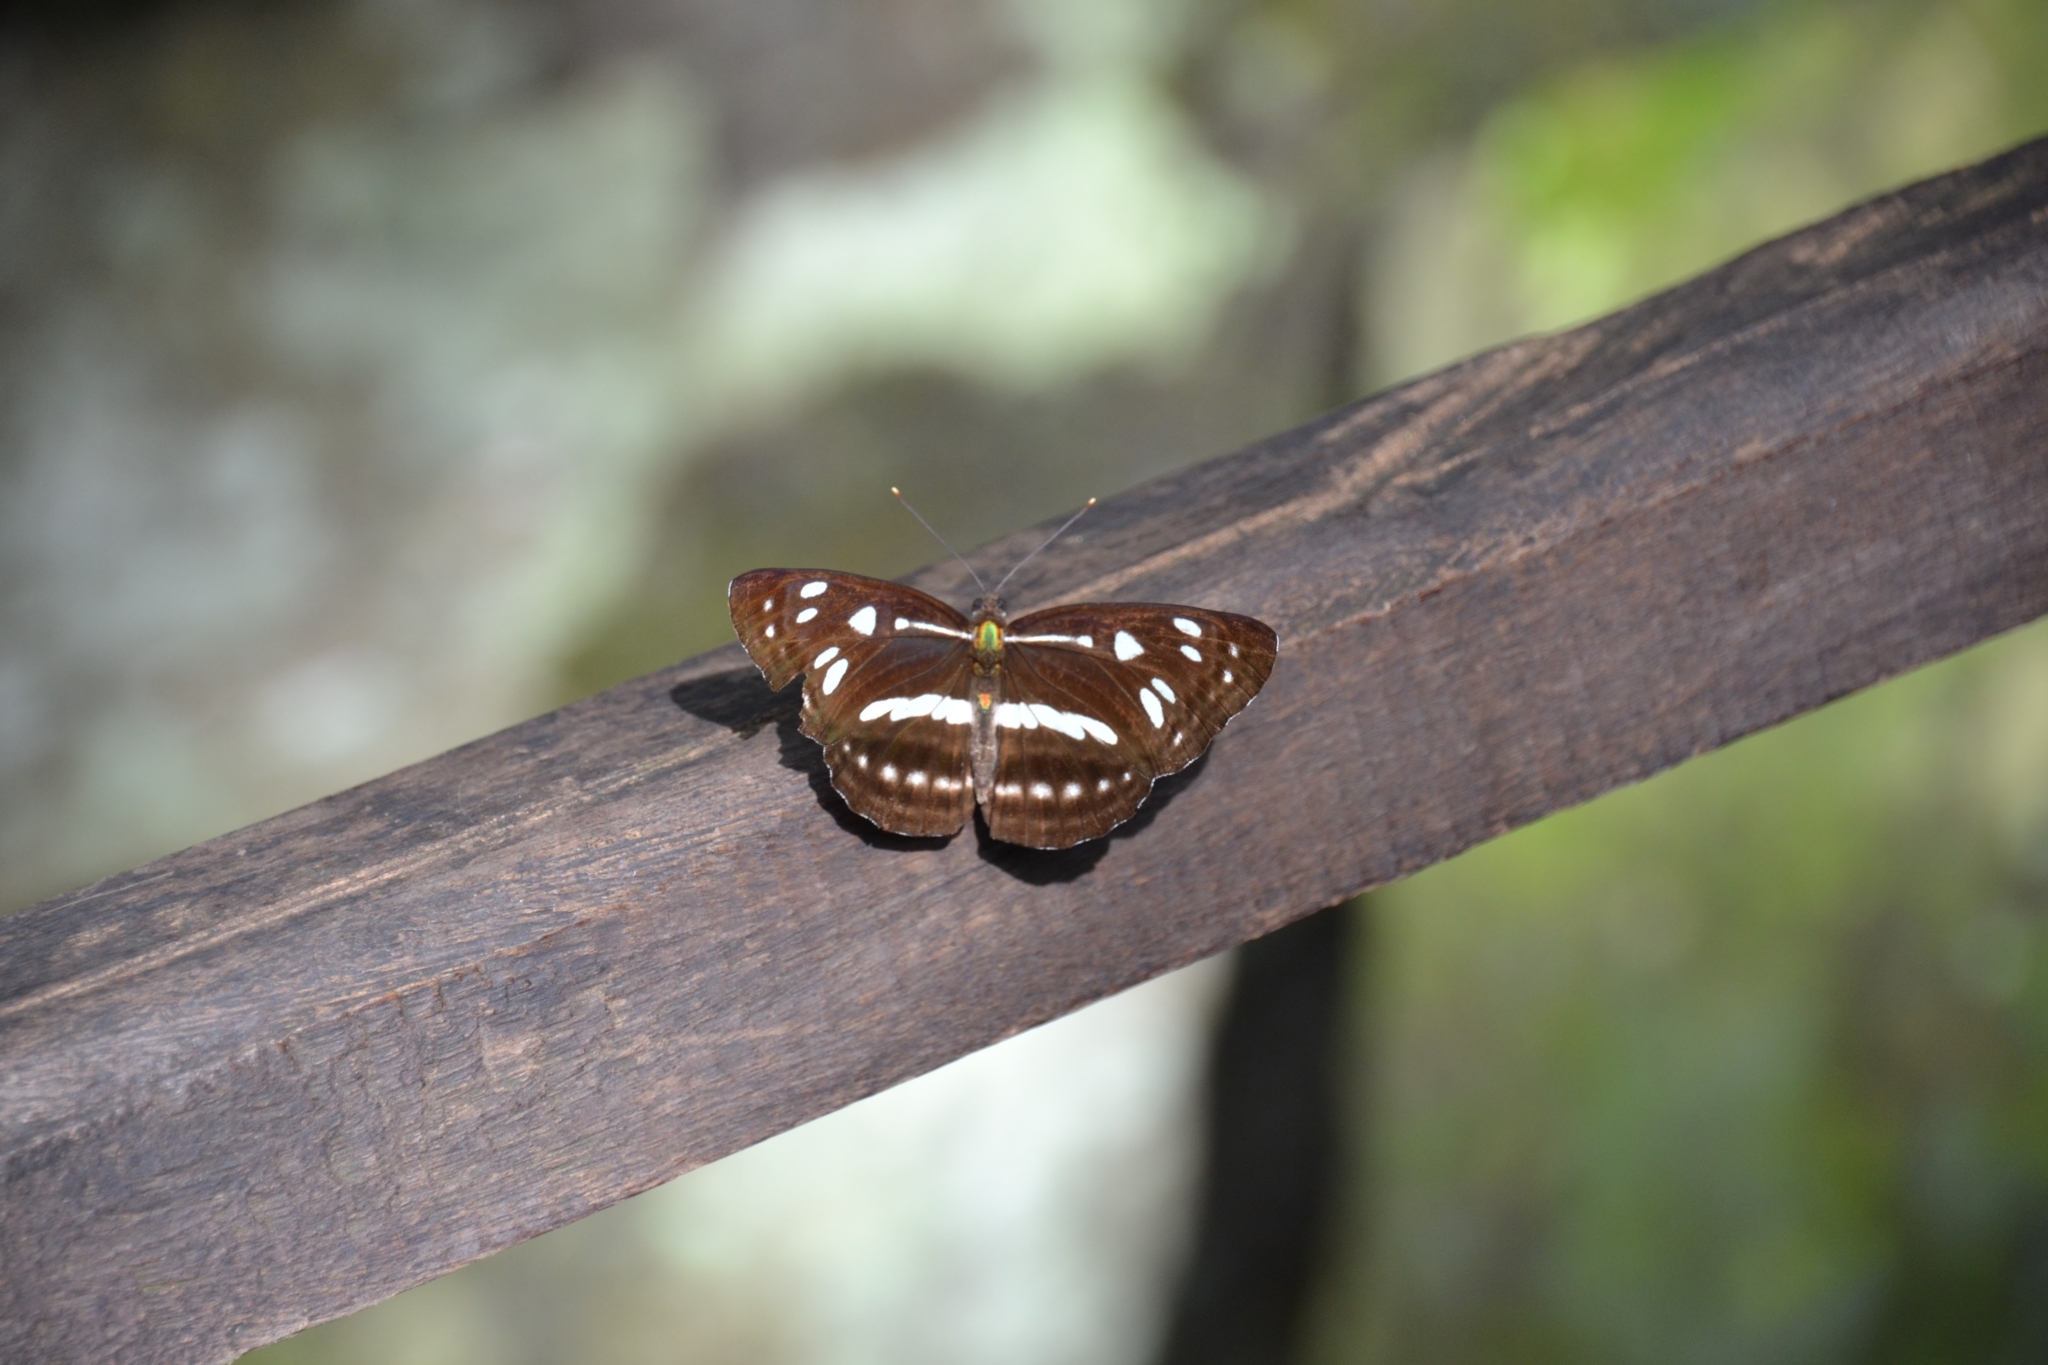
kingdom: Animalia
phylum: Arthropoda
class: Insecta
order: Lepidoptera
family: Nymphalidae
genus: Phaedyma
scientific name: Phaedyma columella
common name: Short banded sailer
